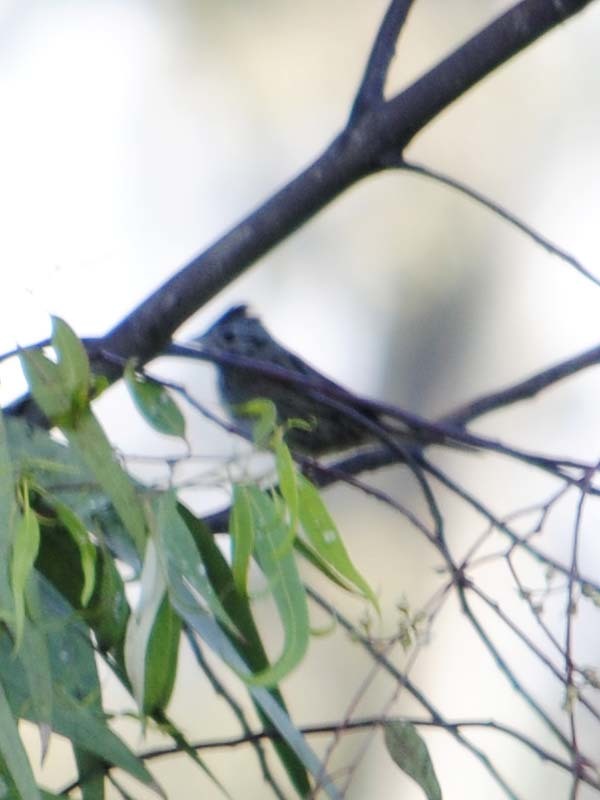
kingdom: Animalia
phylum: Chordata
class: Aves
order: Passeriformes
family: Passerellidae
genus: Melospiza
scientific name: Melospiza lincolnii
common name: Lincoln's sparrow
